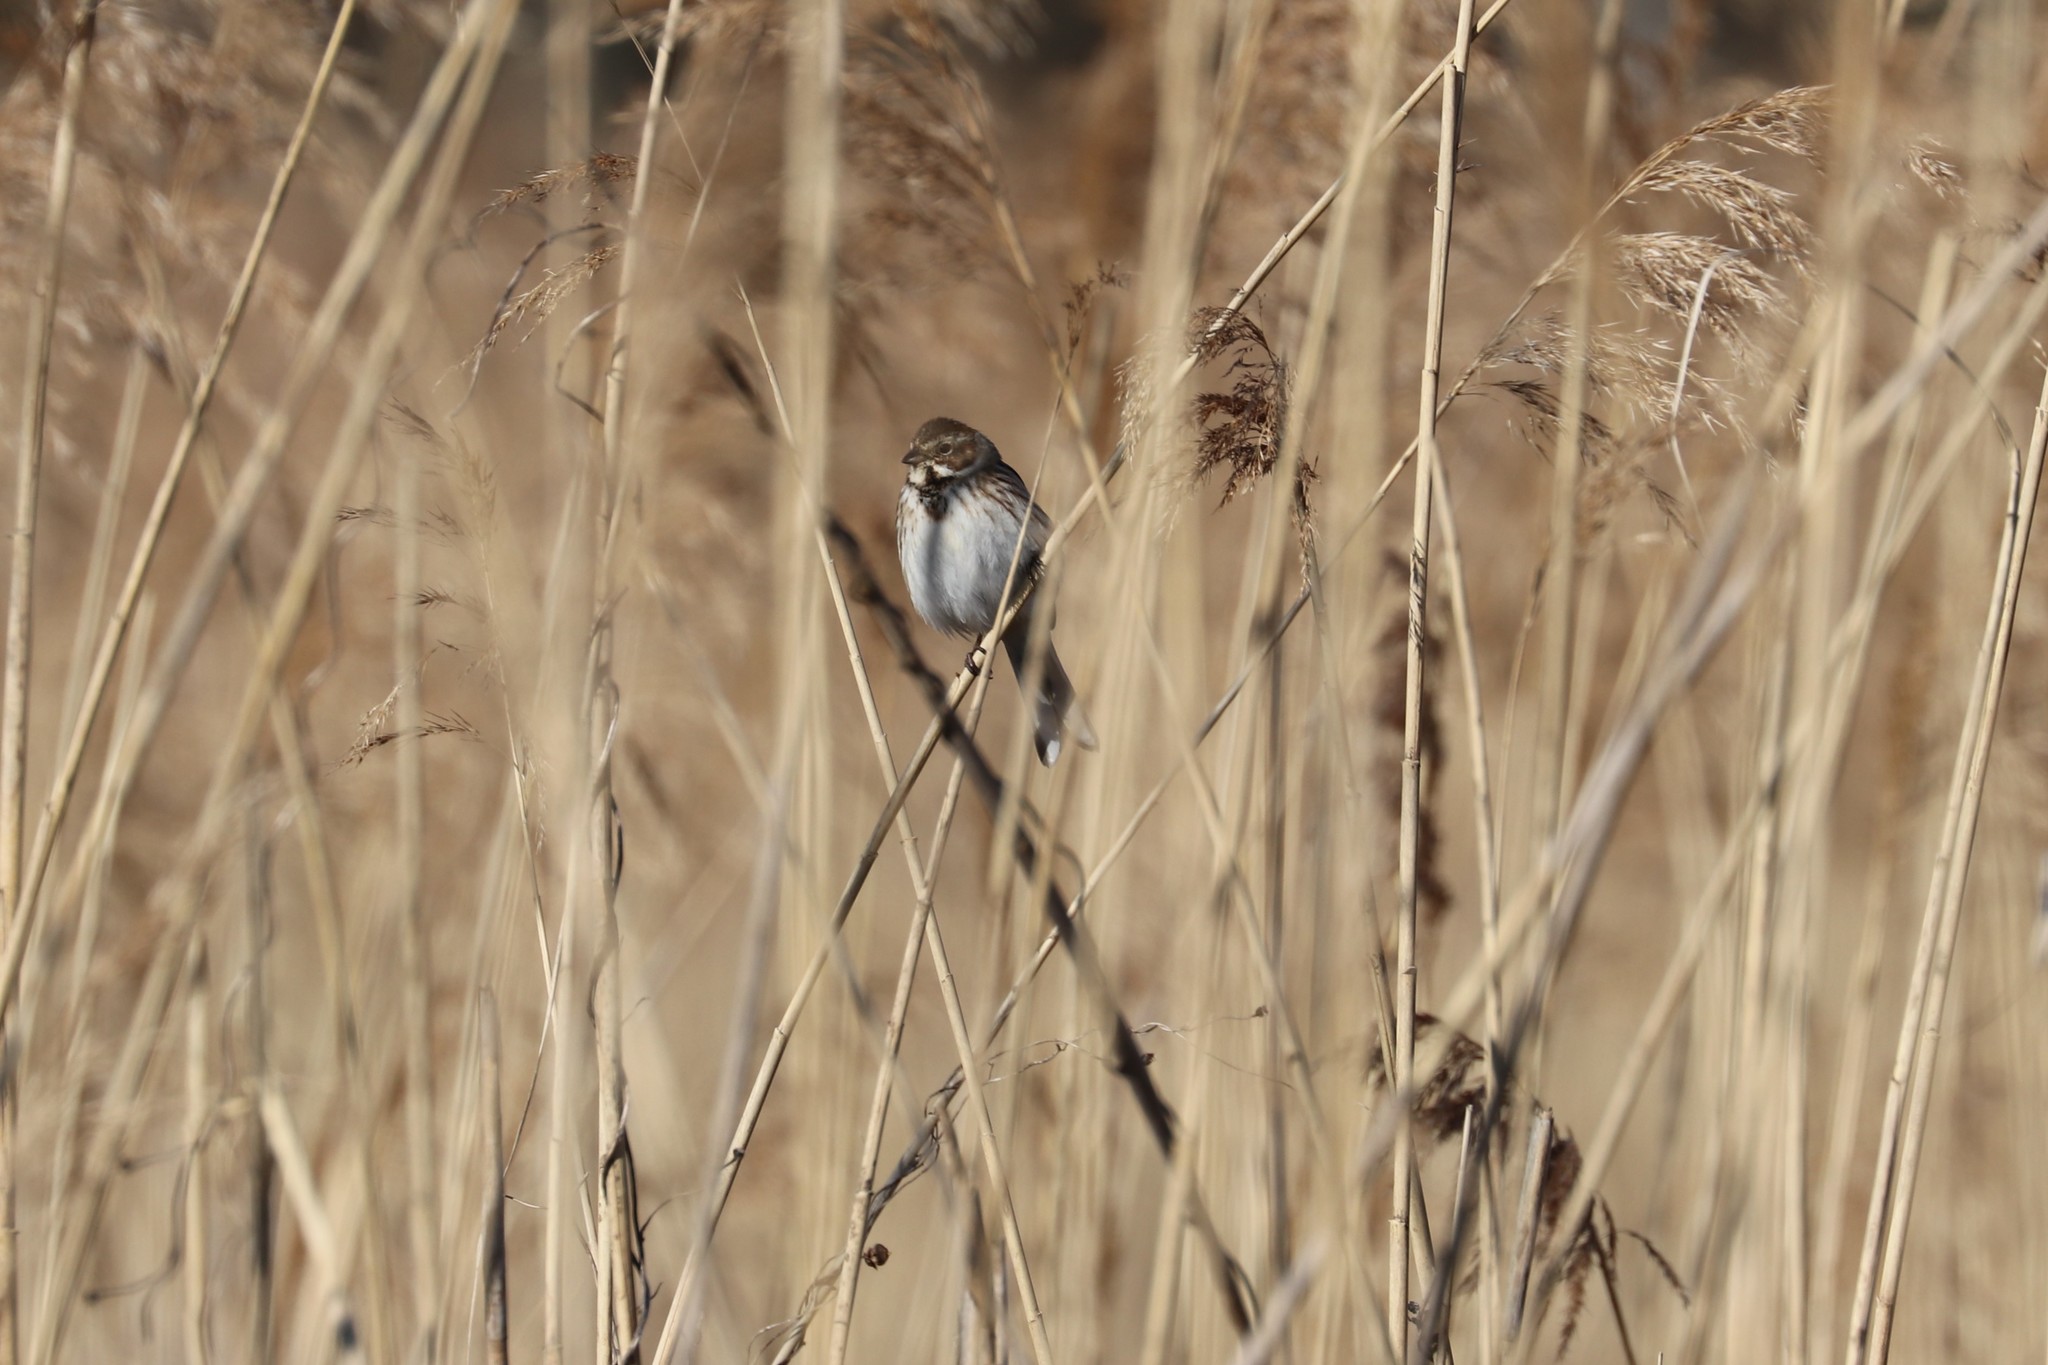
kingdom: Animalia
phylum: Chordata
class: Aves
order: Passeriformes
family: Emberizidae
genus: Emberiza
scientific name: Emberiza schoeniclus
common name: Reed bunting
